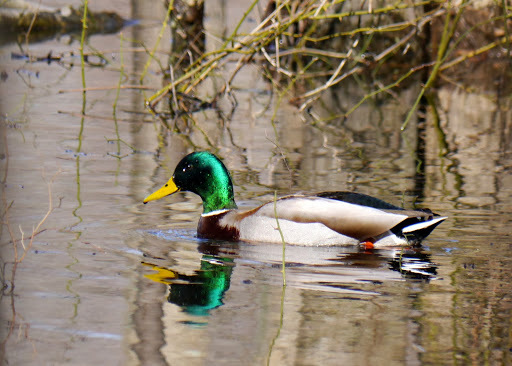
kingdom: Animalia
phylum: Chordata
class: Aves
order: Anseriformes
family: Anatidae
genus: Anas
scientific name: Anas platyrhynchos
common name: Mallard
